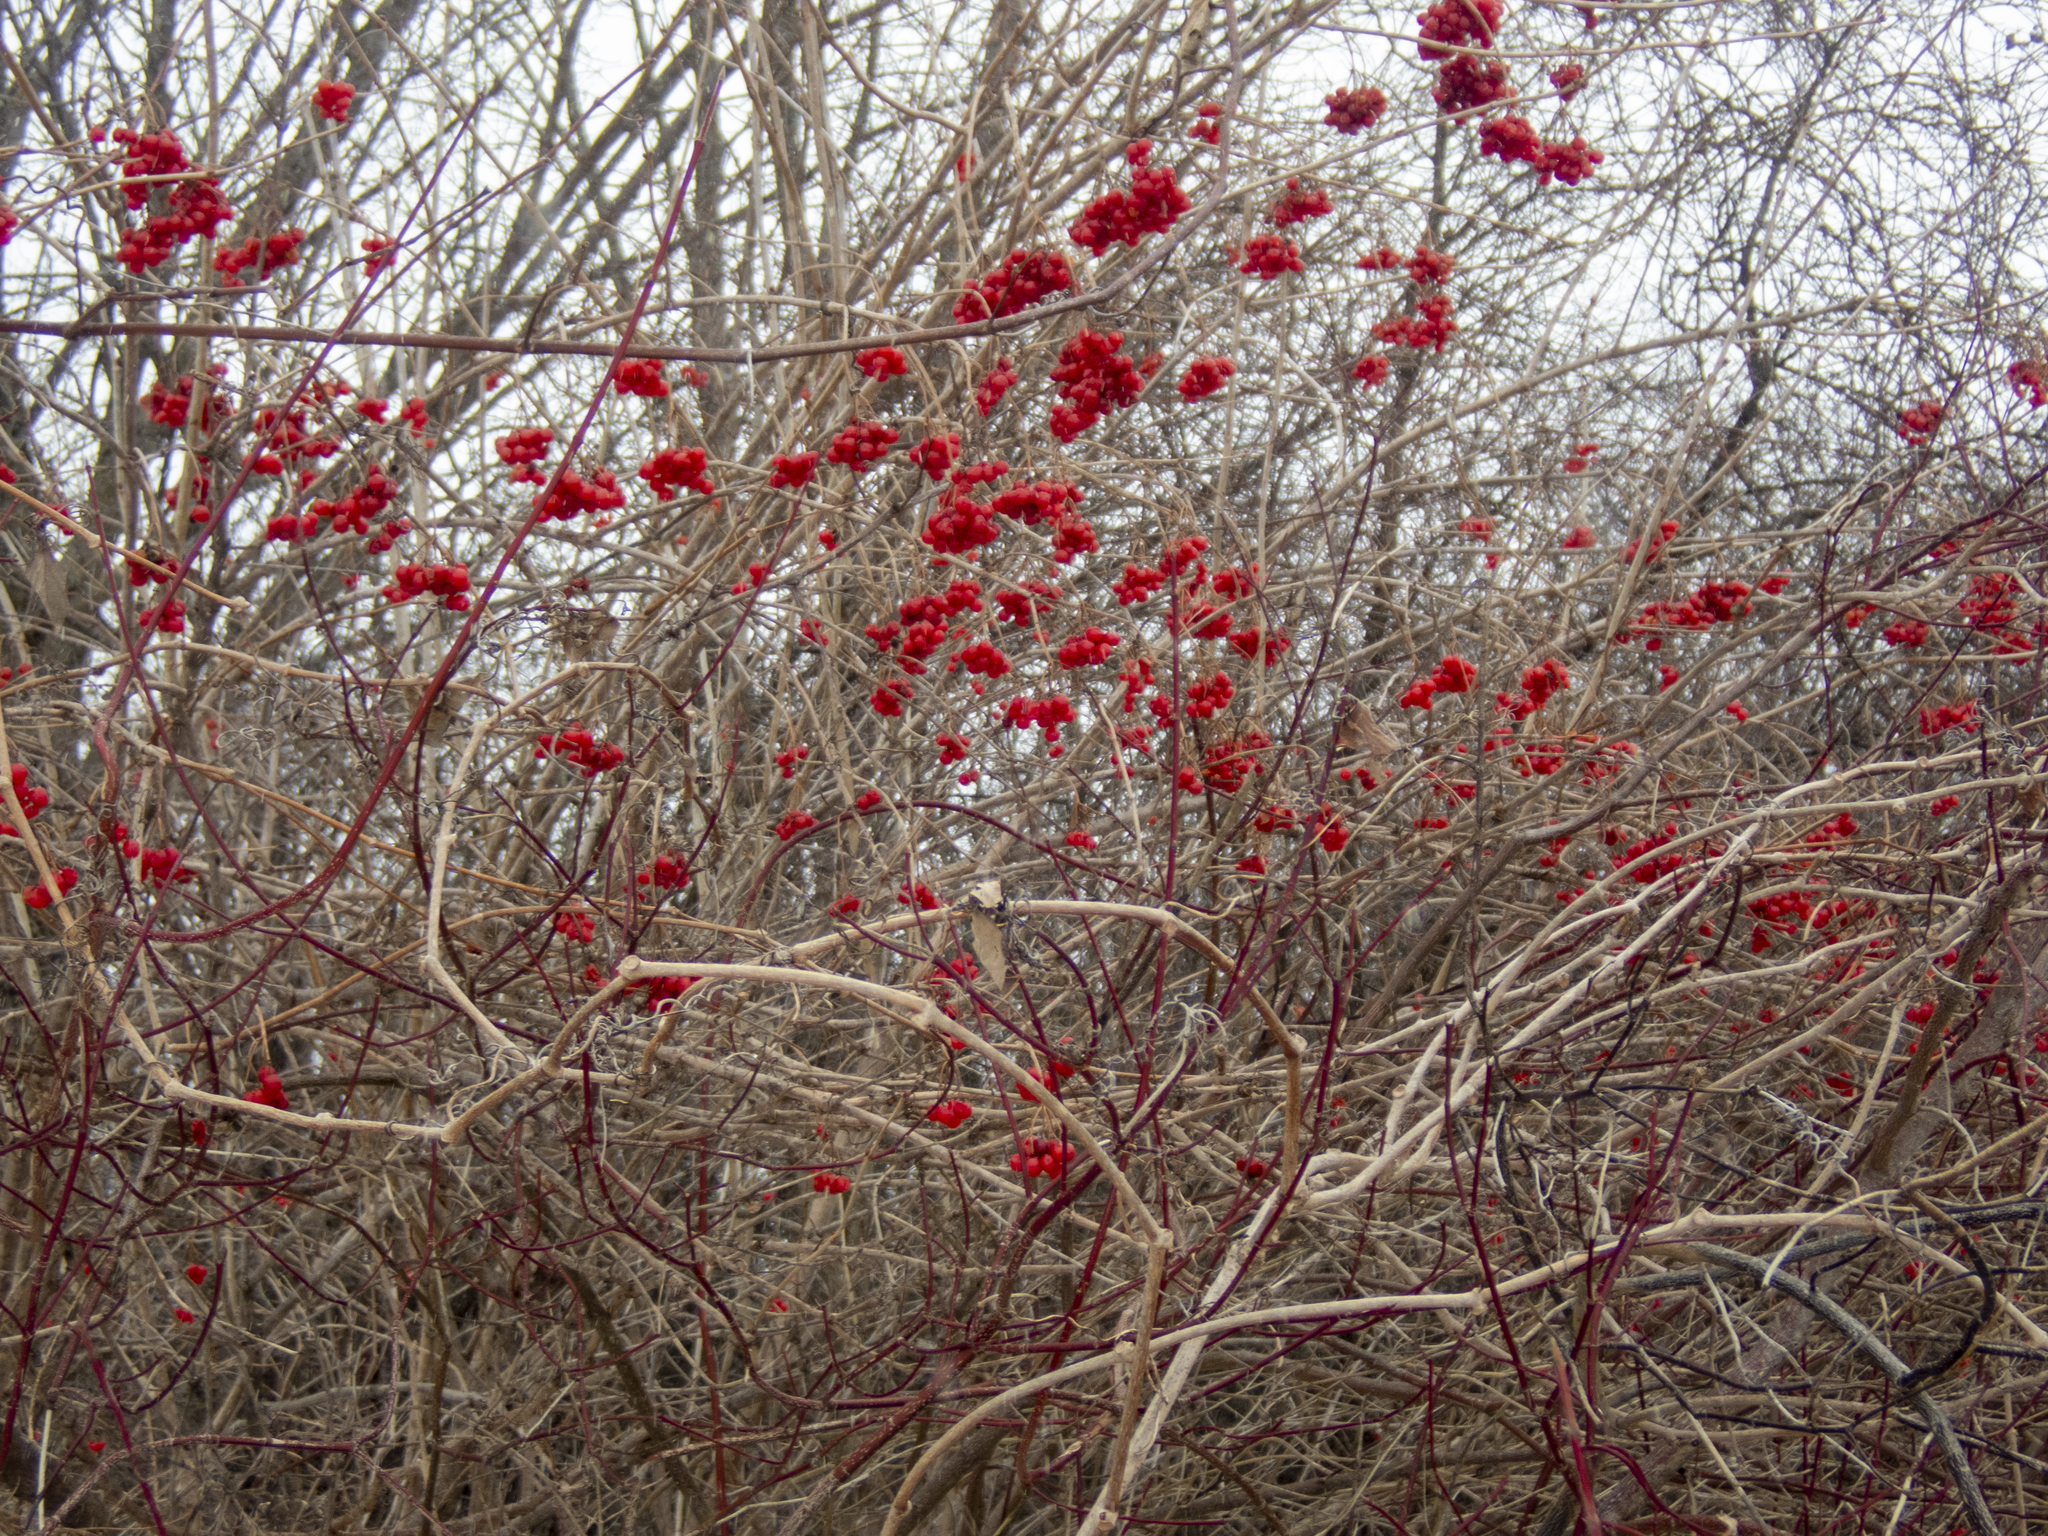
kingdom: Plantae
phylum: Tracheophyta
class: Magnoliopsida
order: Dipsacales
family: Viburnaceae
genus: Viburnum
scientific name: Viburnum opulus
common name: Guelder-rose
